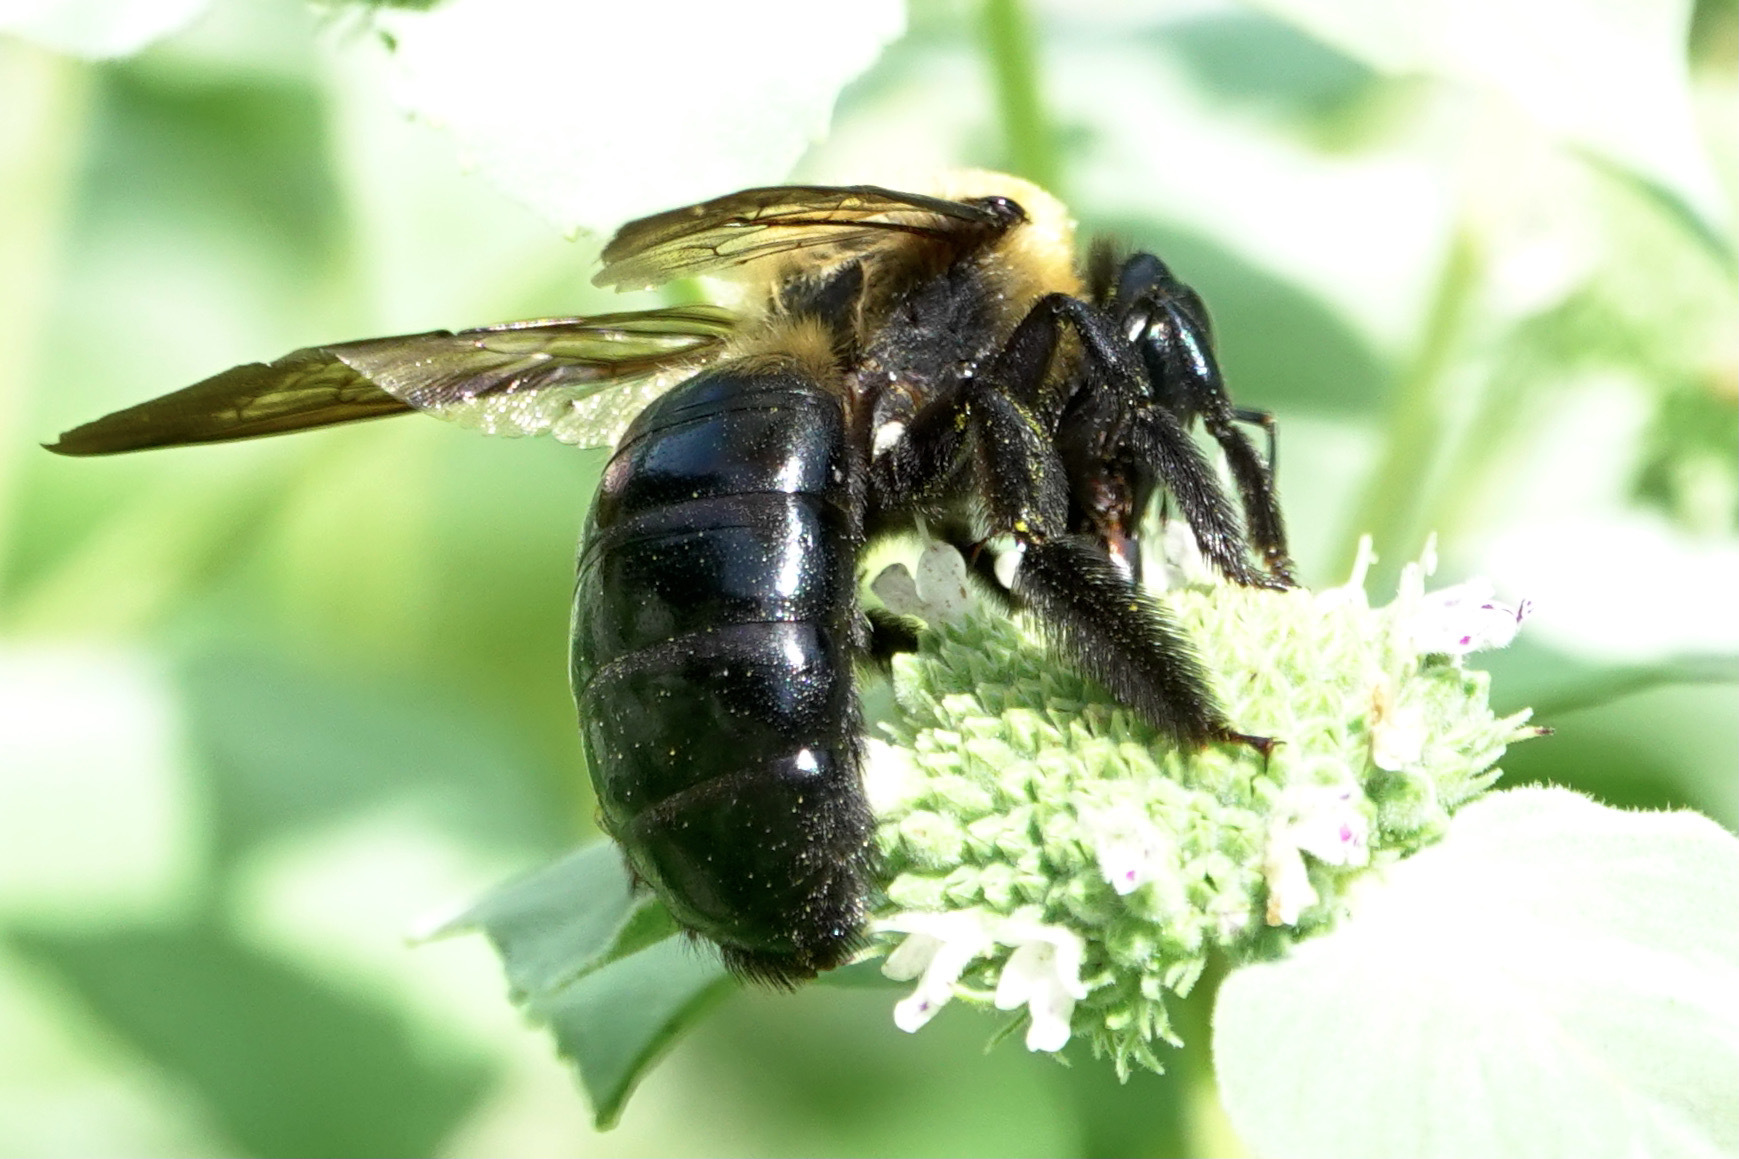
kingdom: Animalia
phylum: Arthropoda
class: Insecta
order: Hymenoptera
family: Apidae
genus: Xylocopa
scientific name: Xylocopa virginica
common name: Carpenter bee
